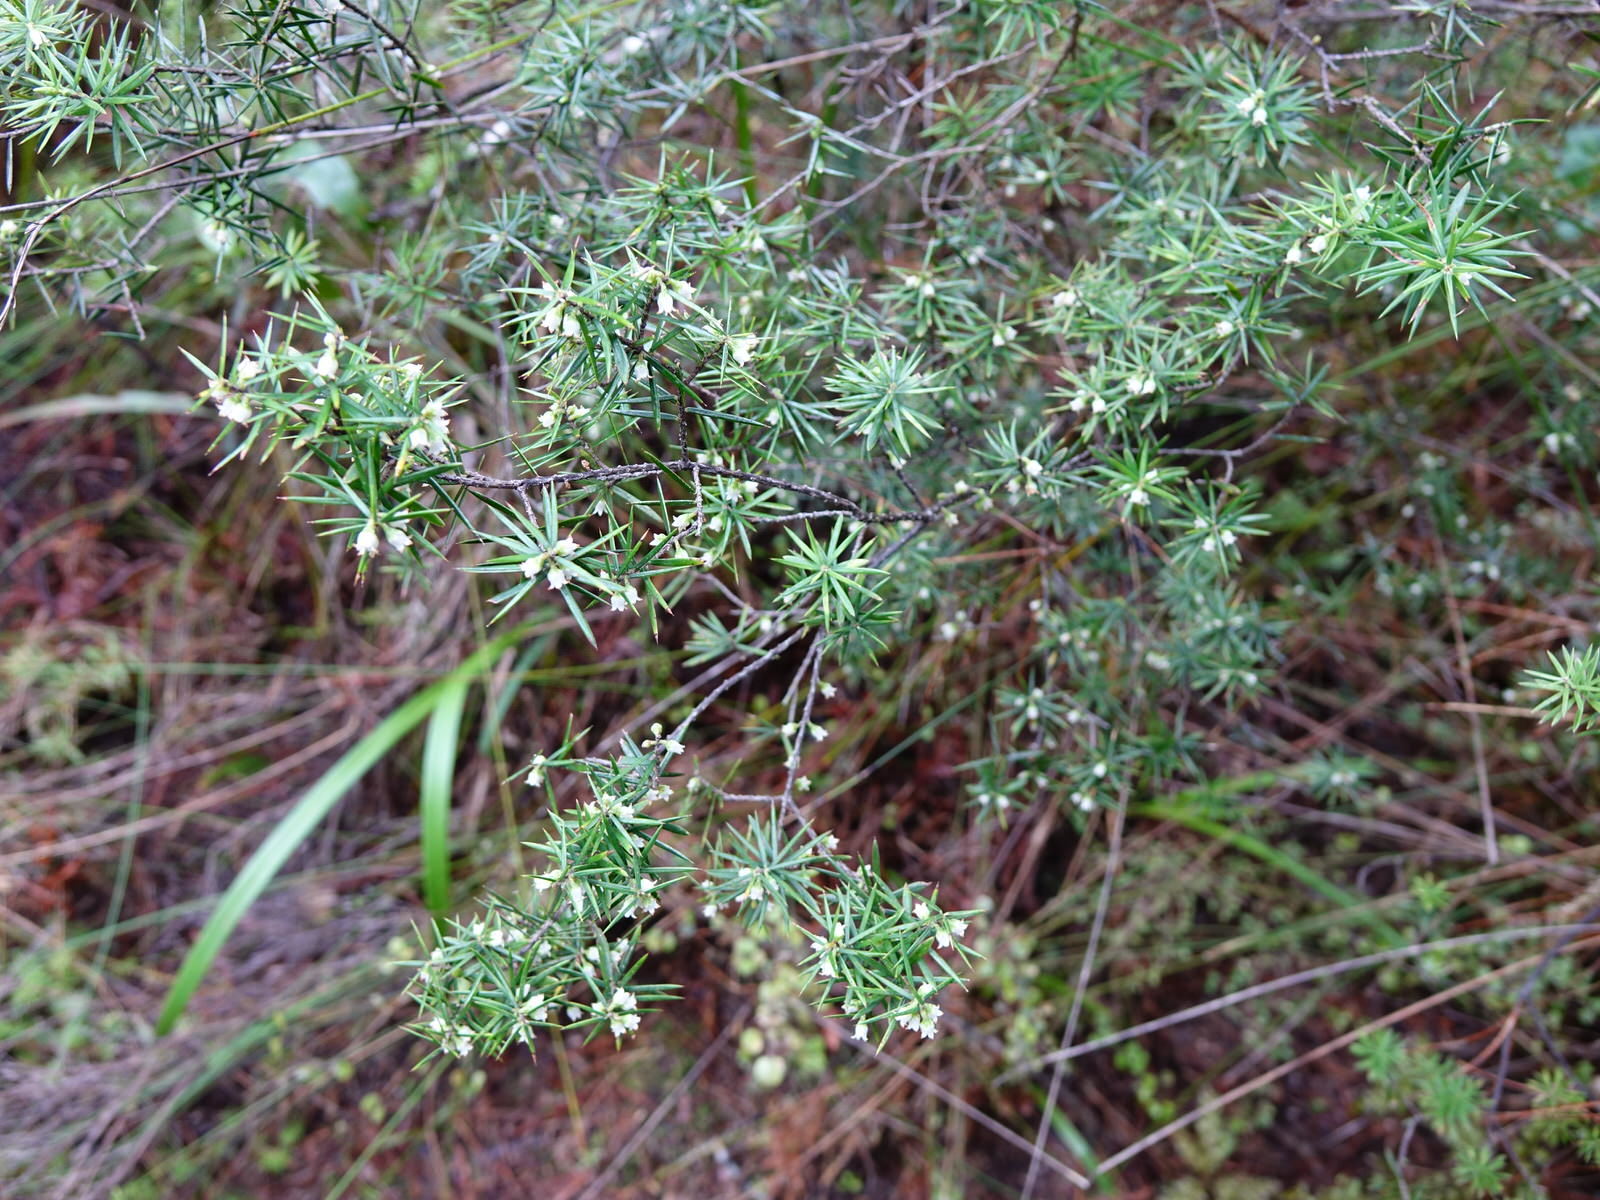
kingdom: Plantae
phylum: Tracheophyta
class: Magnoliopsida
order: Ericales
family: Ericaceae
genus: Leptecophylla
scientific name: Leptecophylla juniperina
